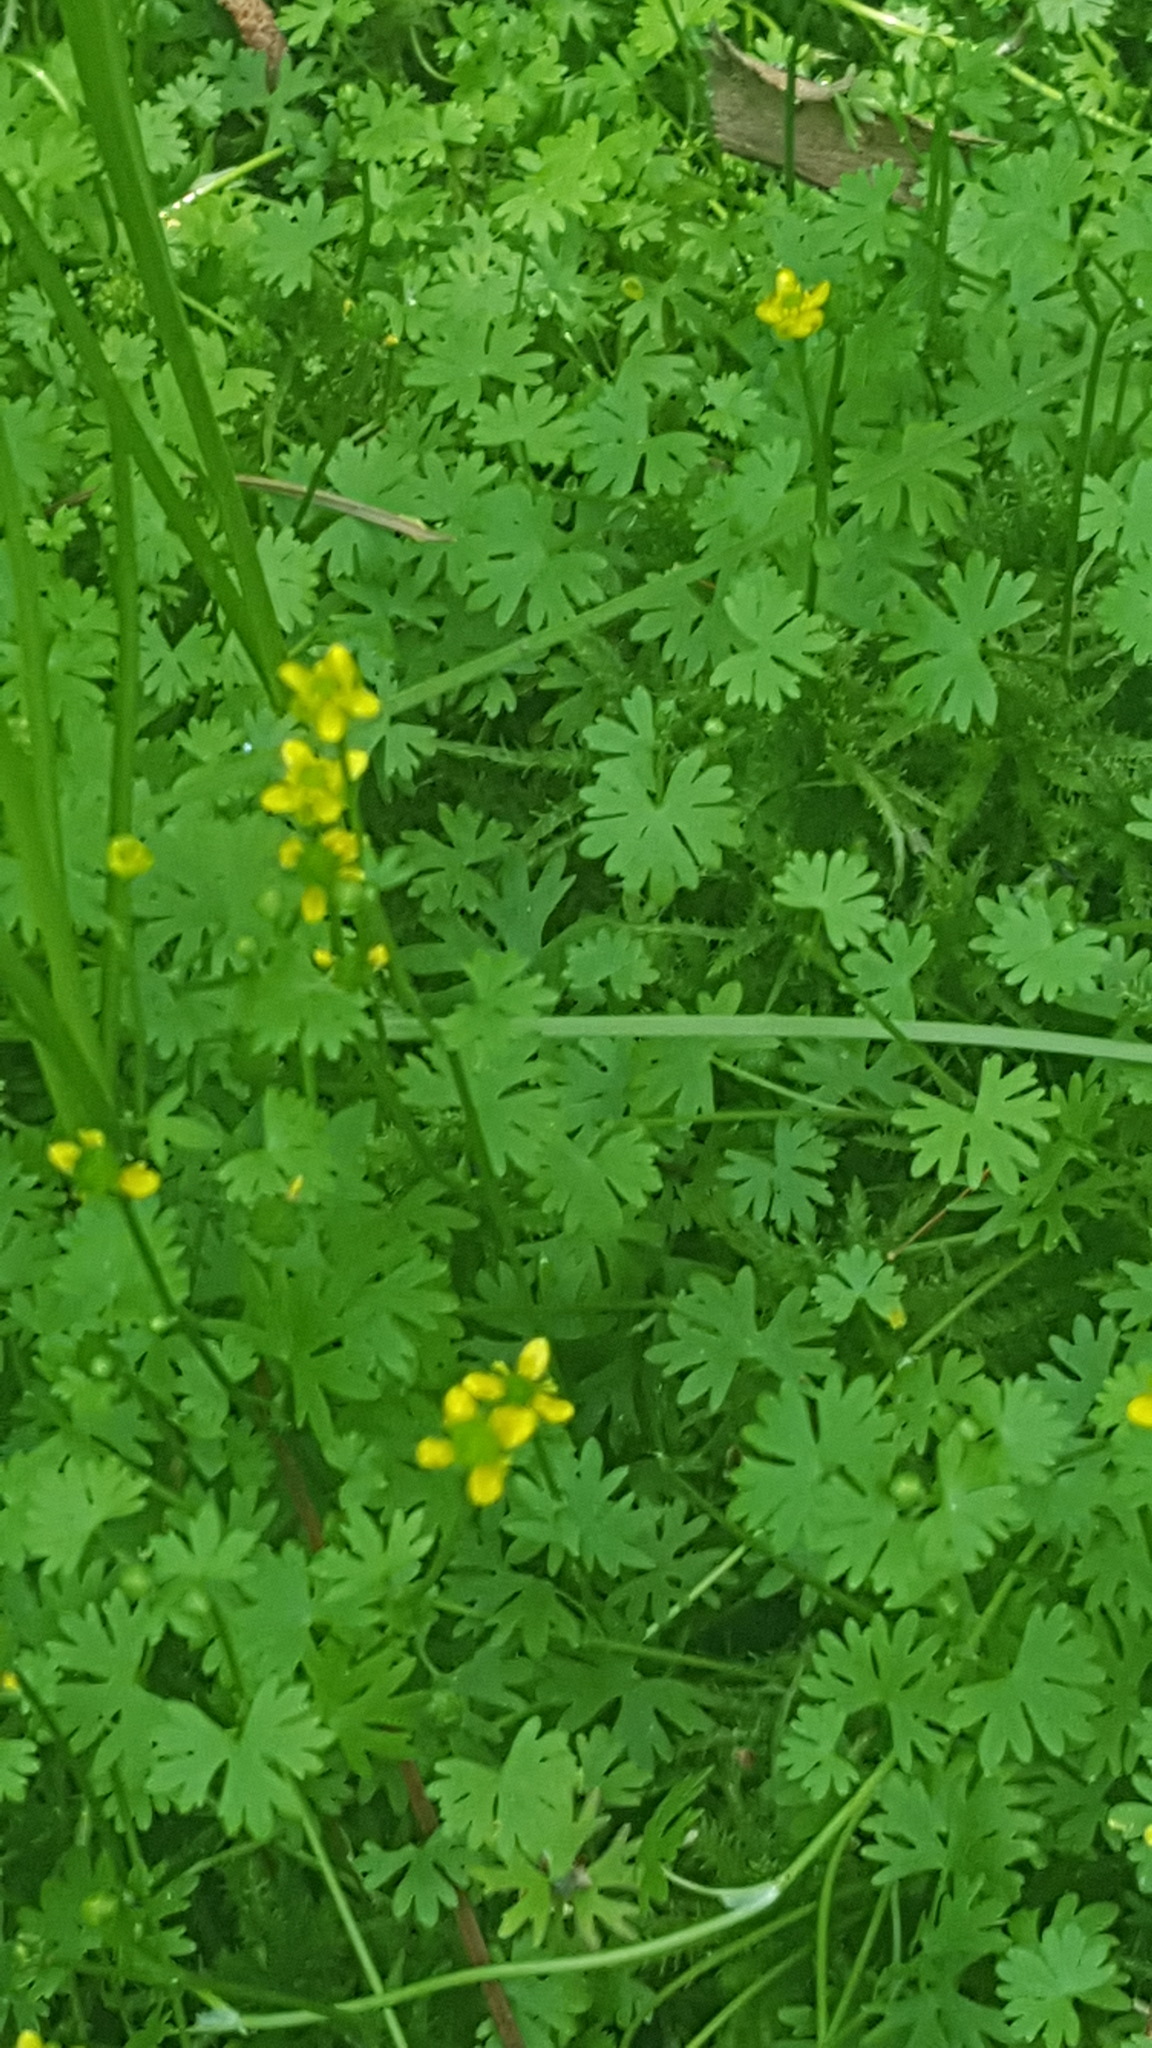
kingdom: Plantae
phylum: Tracheophyta
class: Magnoliopsida
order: Ranunculales
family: Ranunculaceae
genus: Ranunculus
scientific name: Ranunculus gmelinii
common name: Gmelin's buttercup
